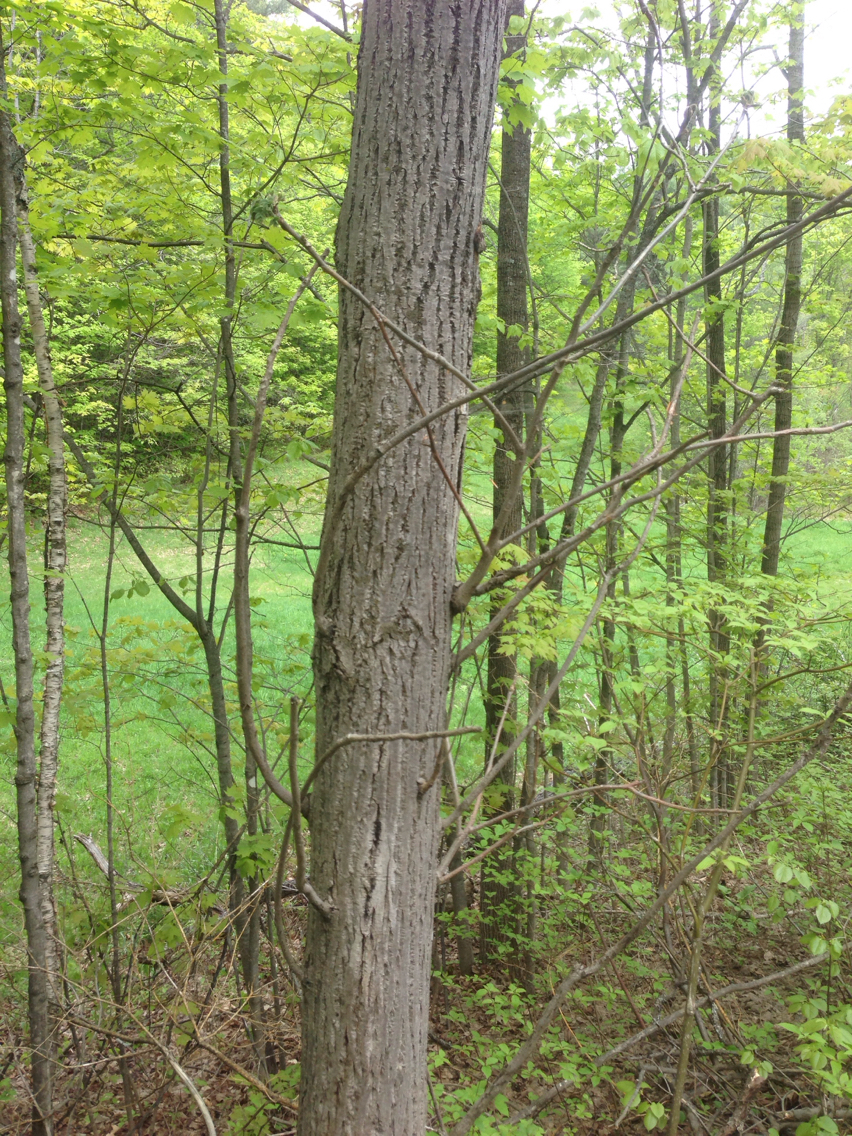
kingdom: Plantae
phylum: Tracheophyta
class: Magnoliopsida
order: Fagales
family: Juglandaceae
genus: Juglans
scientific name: Juglans cinerea
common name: Butternut
